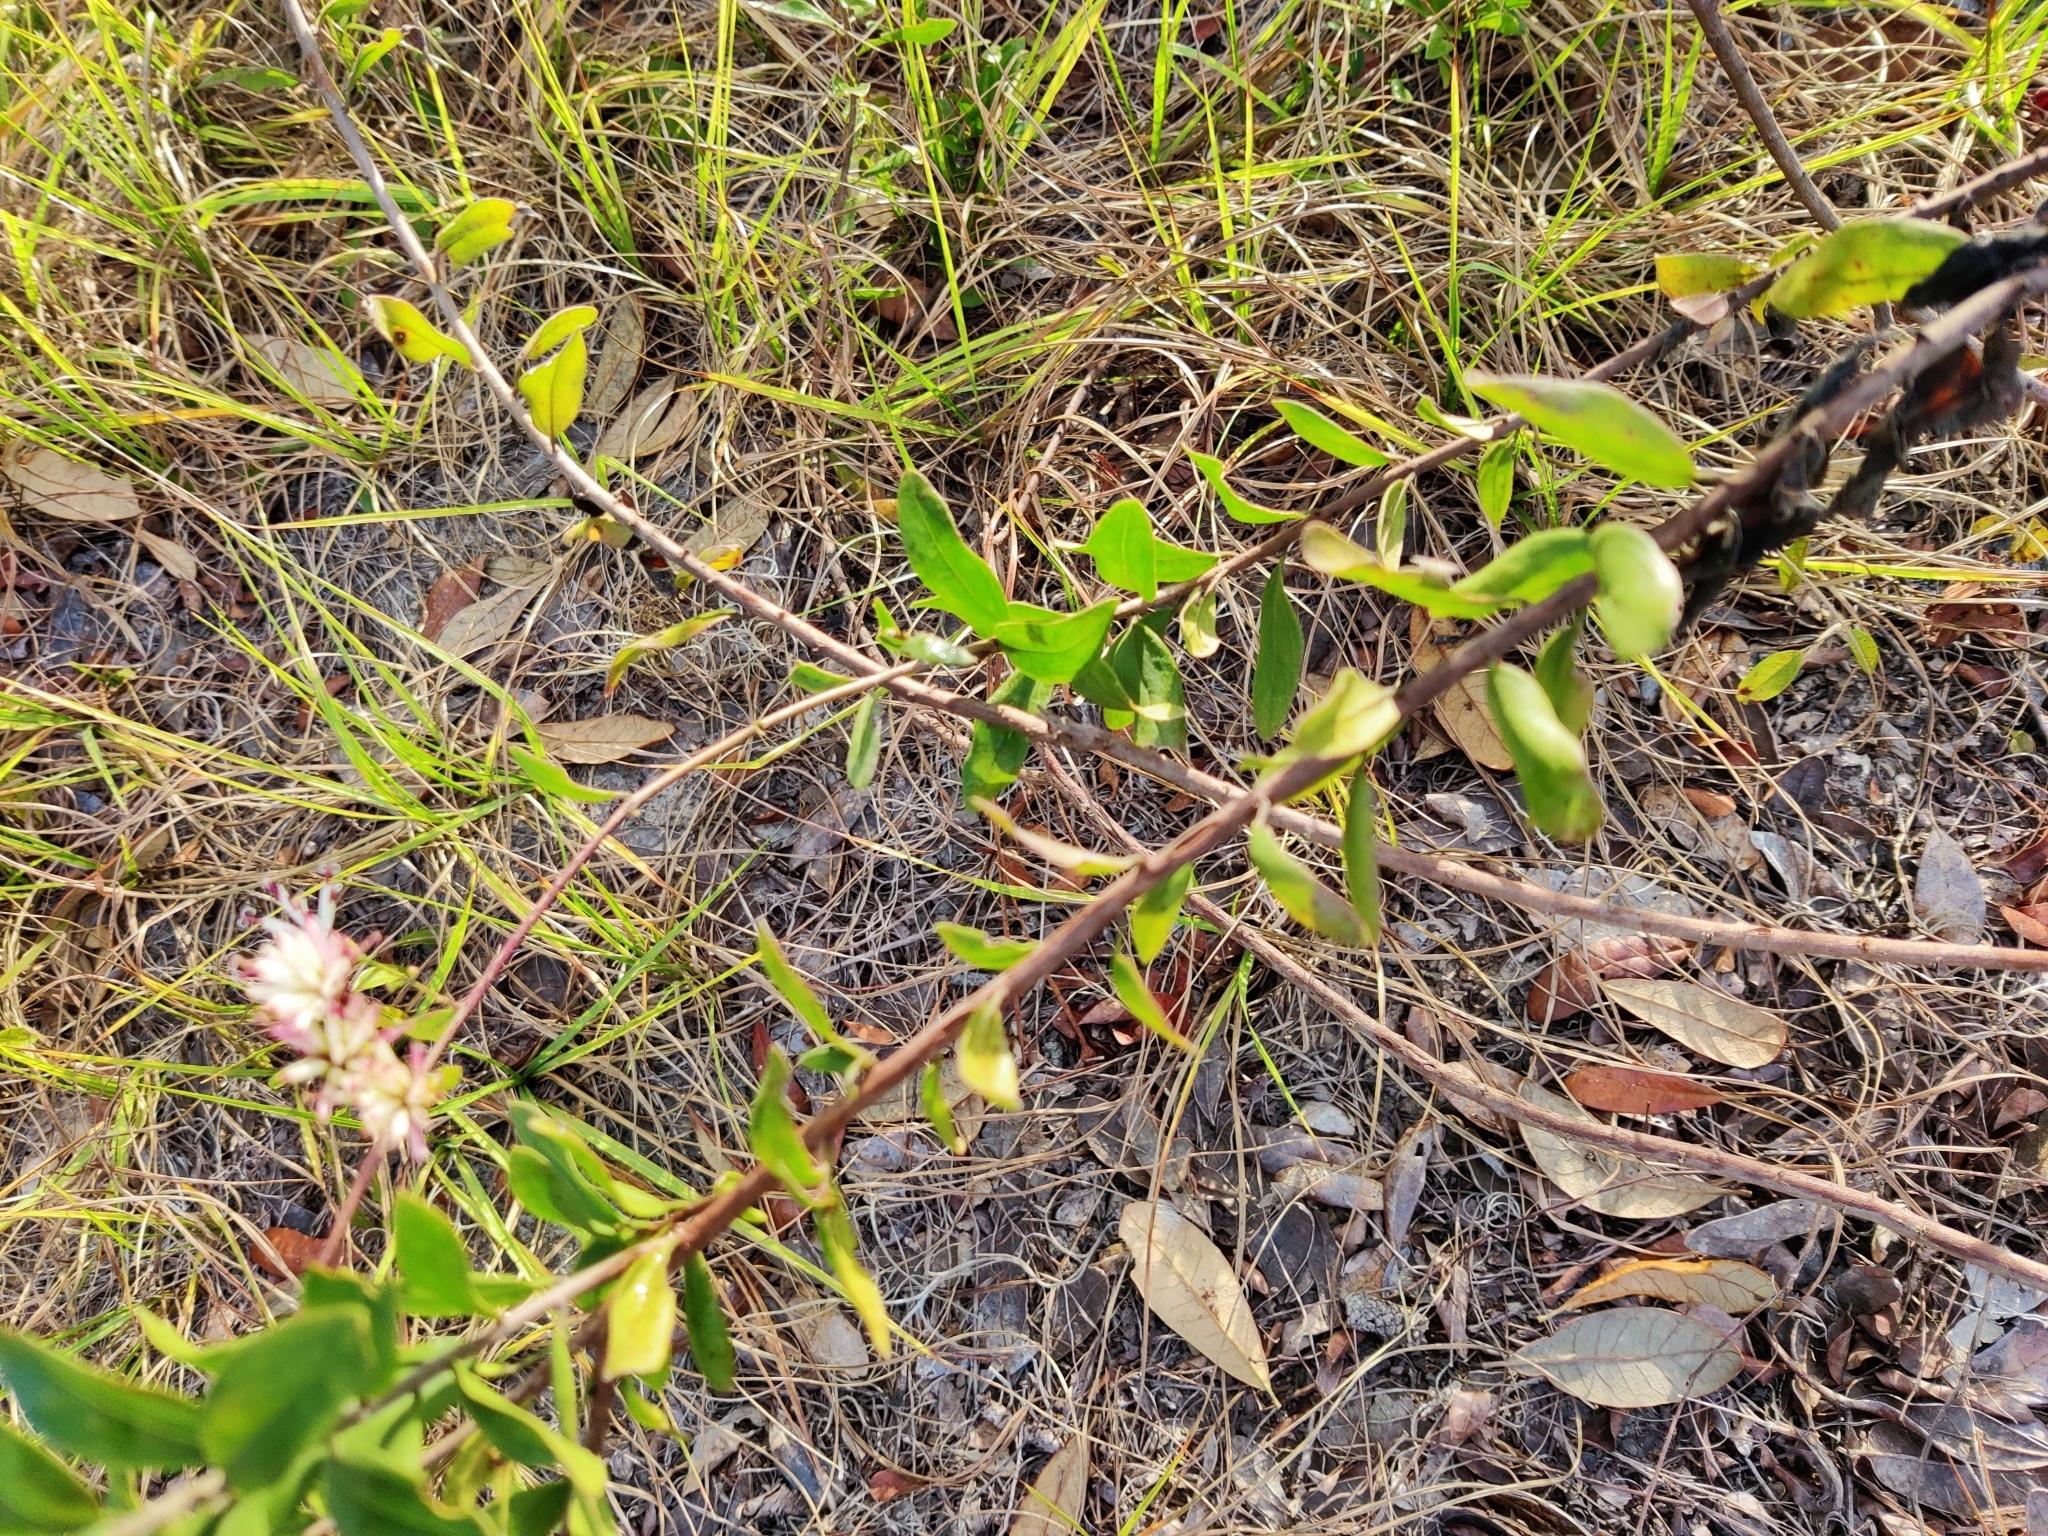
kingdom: Plantae
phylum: Tracheophyta
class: Magnoliopsida
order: Asterales
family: Asteraceae
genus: Palafoxia
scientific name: Palafoxia feayi
